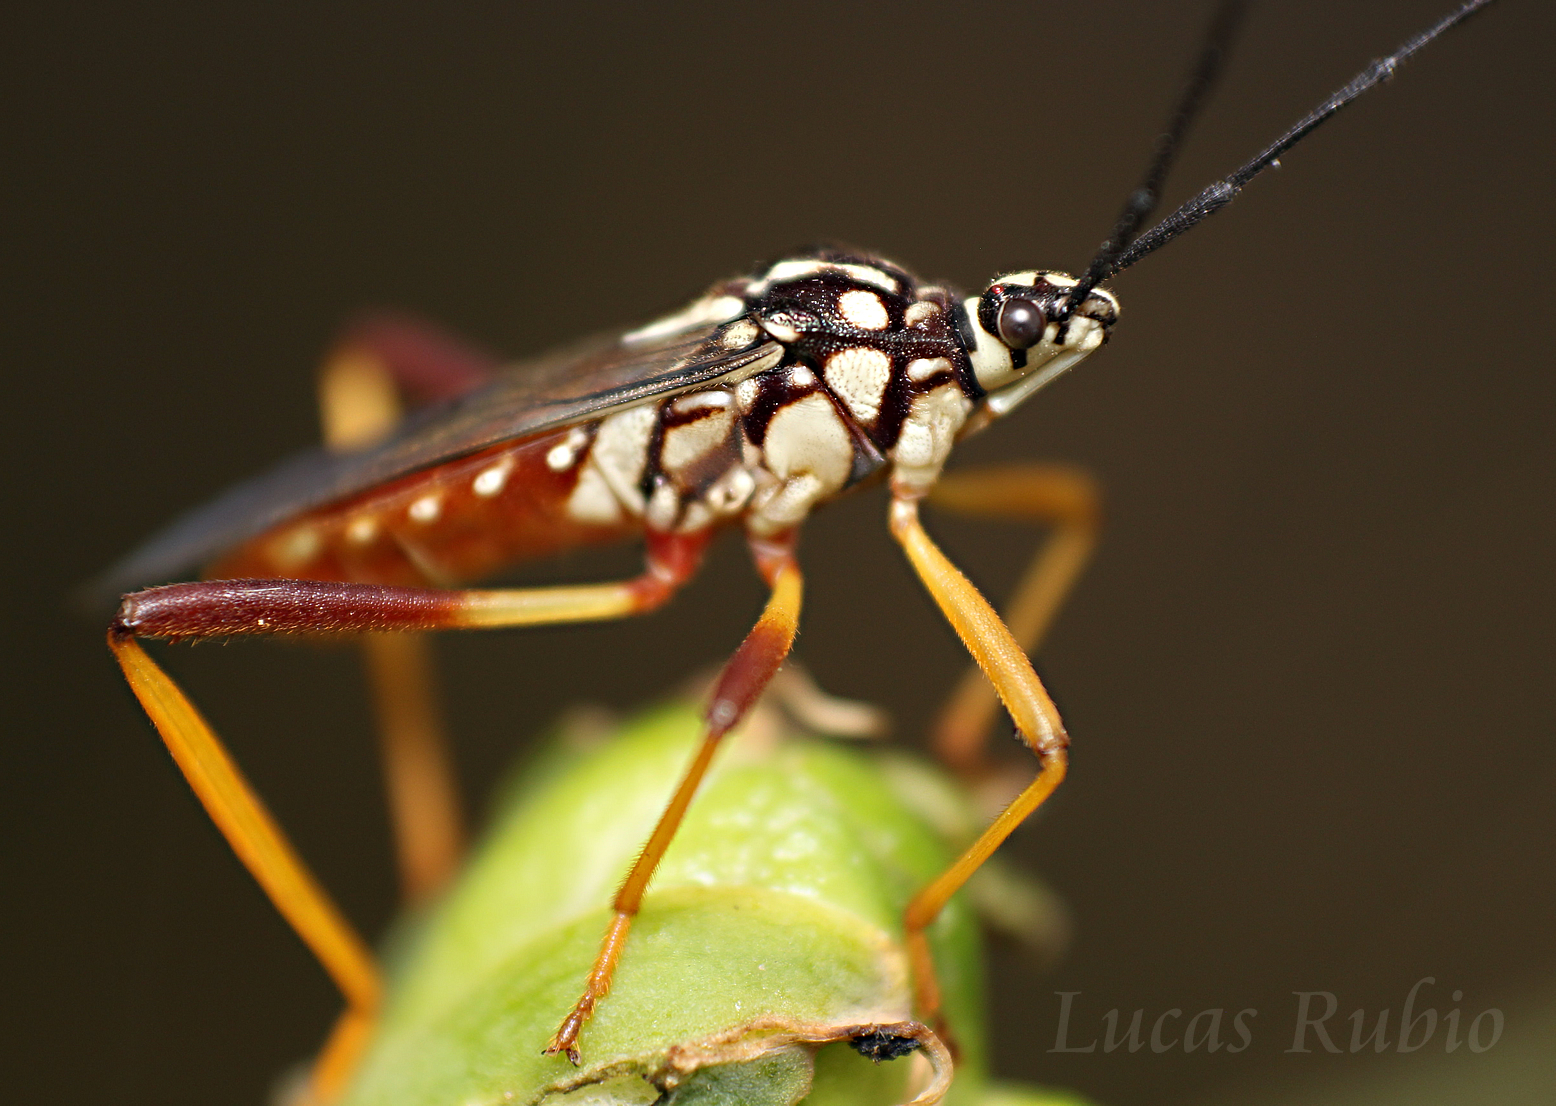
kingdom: Animalia
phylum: Arthropoda
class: Insecta
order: Hemiptera
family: Coreidae
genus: Holhymenia
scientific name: Holhymenia histrio
